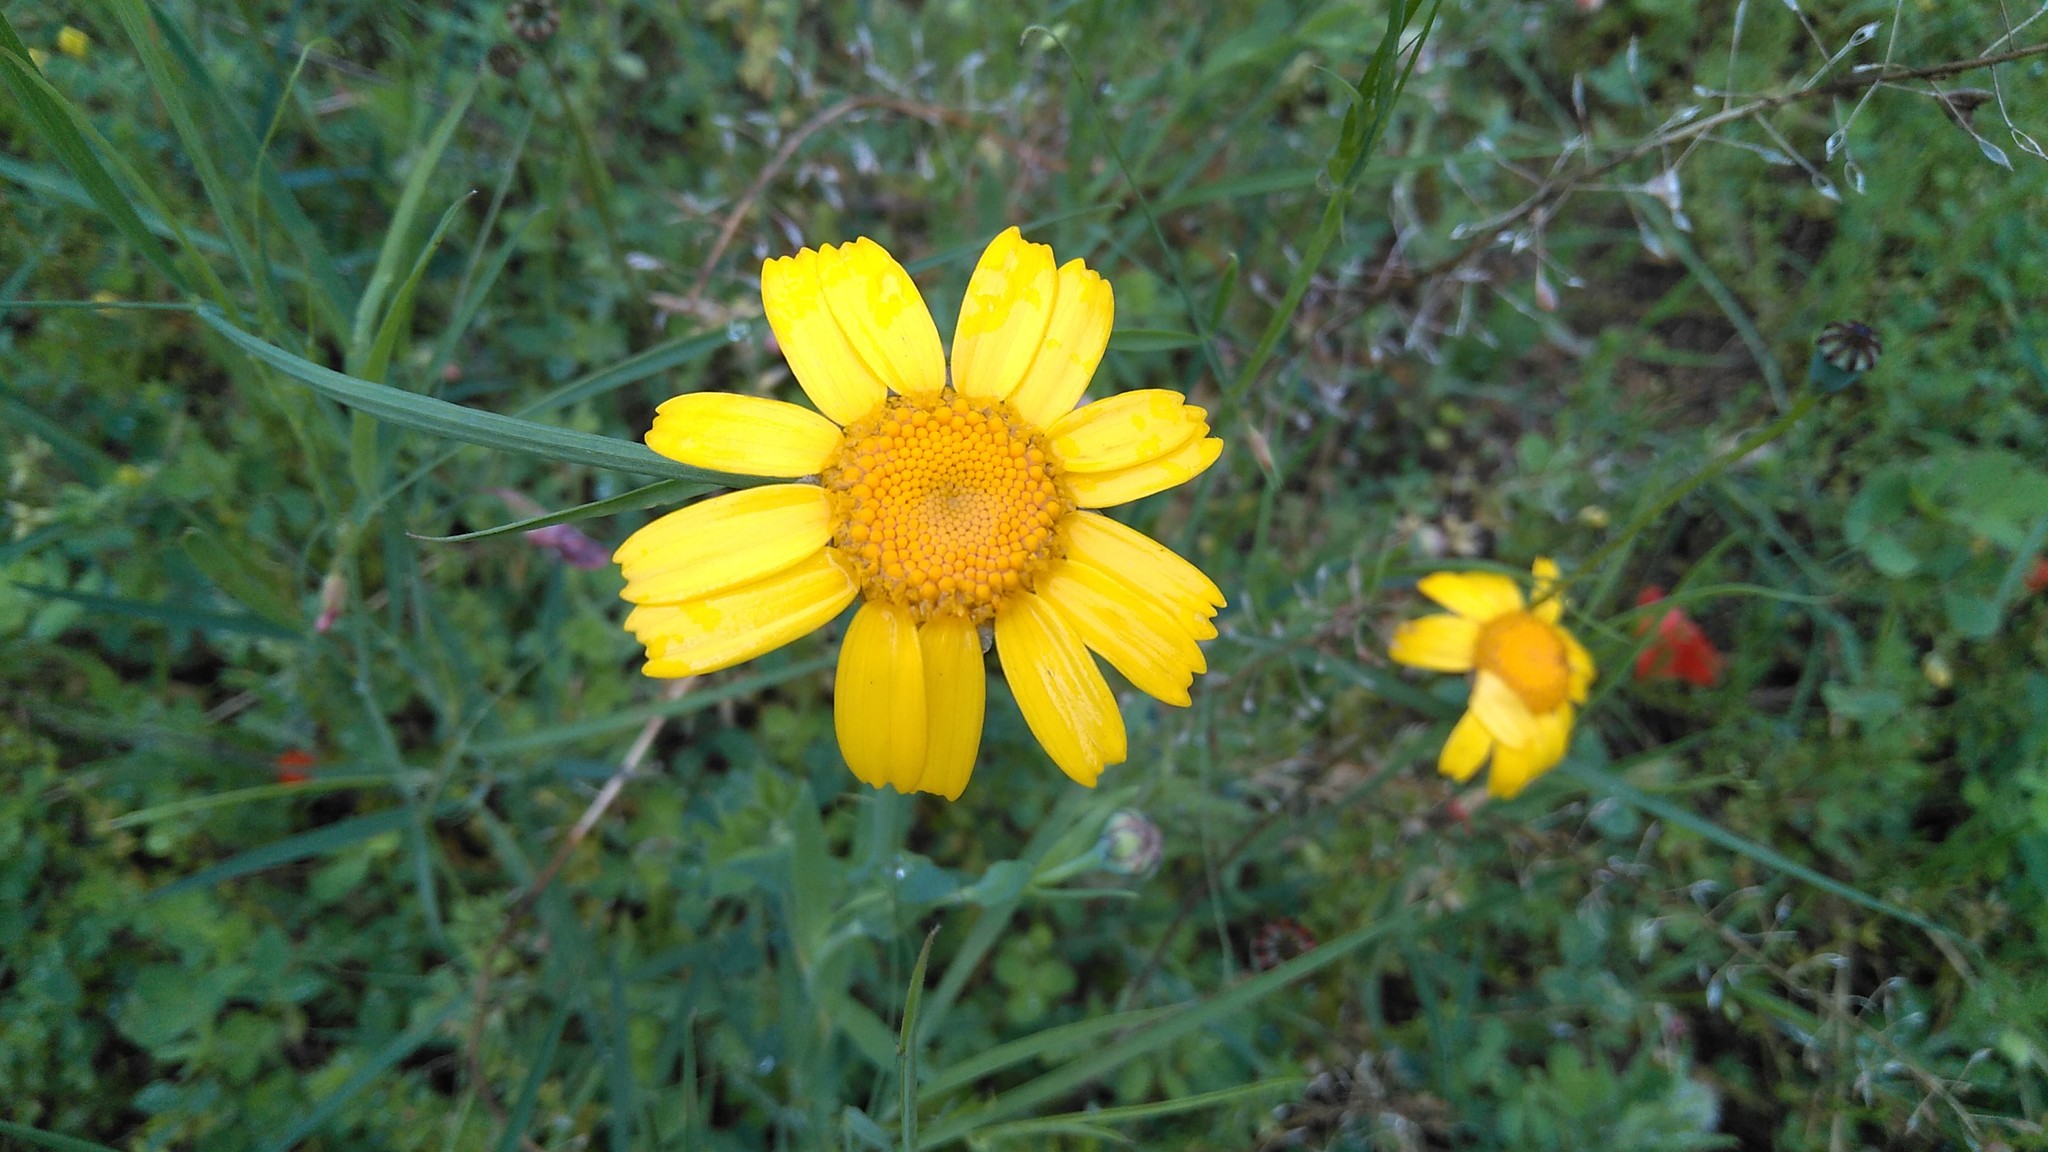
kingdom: Plantae
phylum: Tracheophyta
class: Magnoliopsida
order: Asterales
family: Asteraceae
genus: Glebionis
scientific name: Glebionis segetum
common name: Corndaisy
